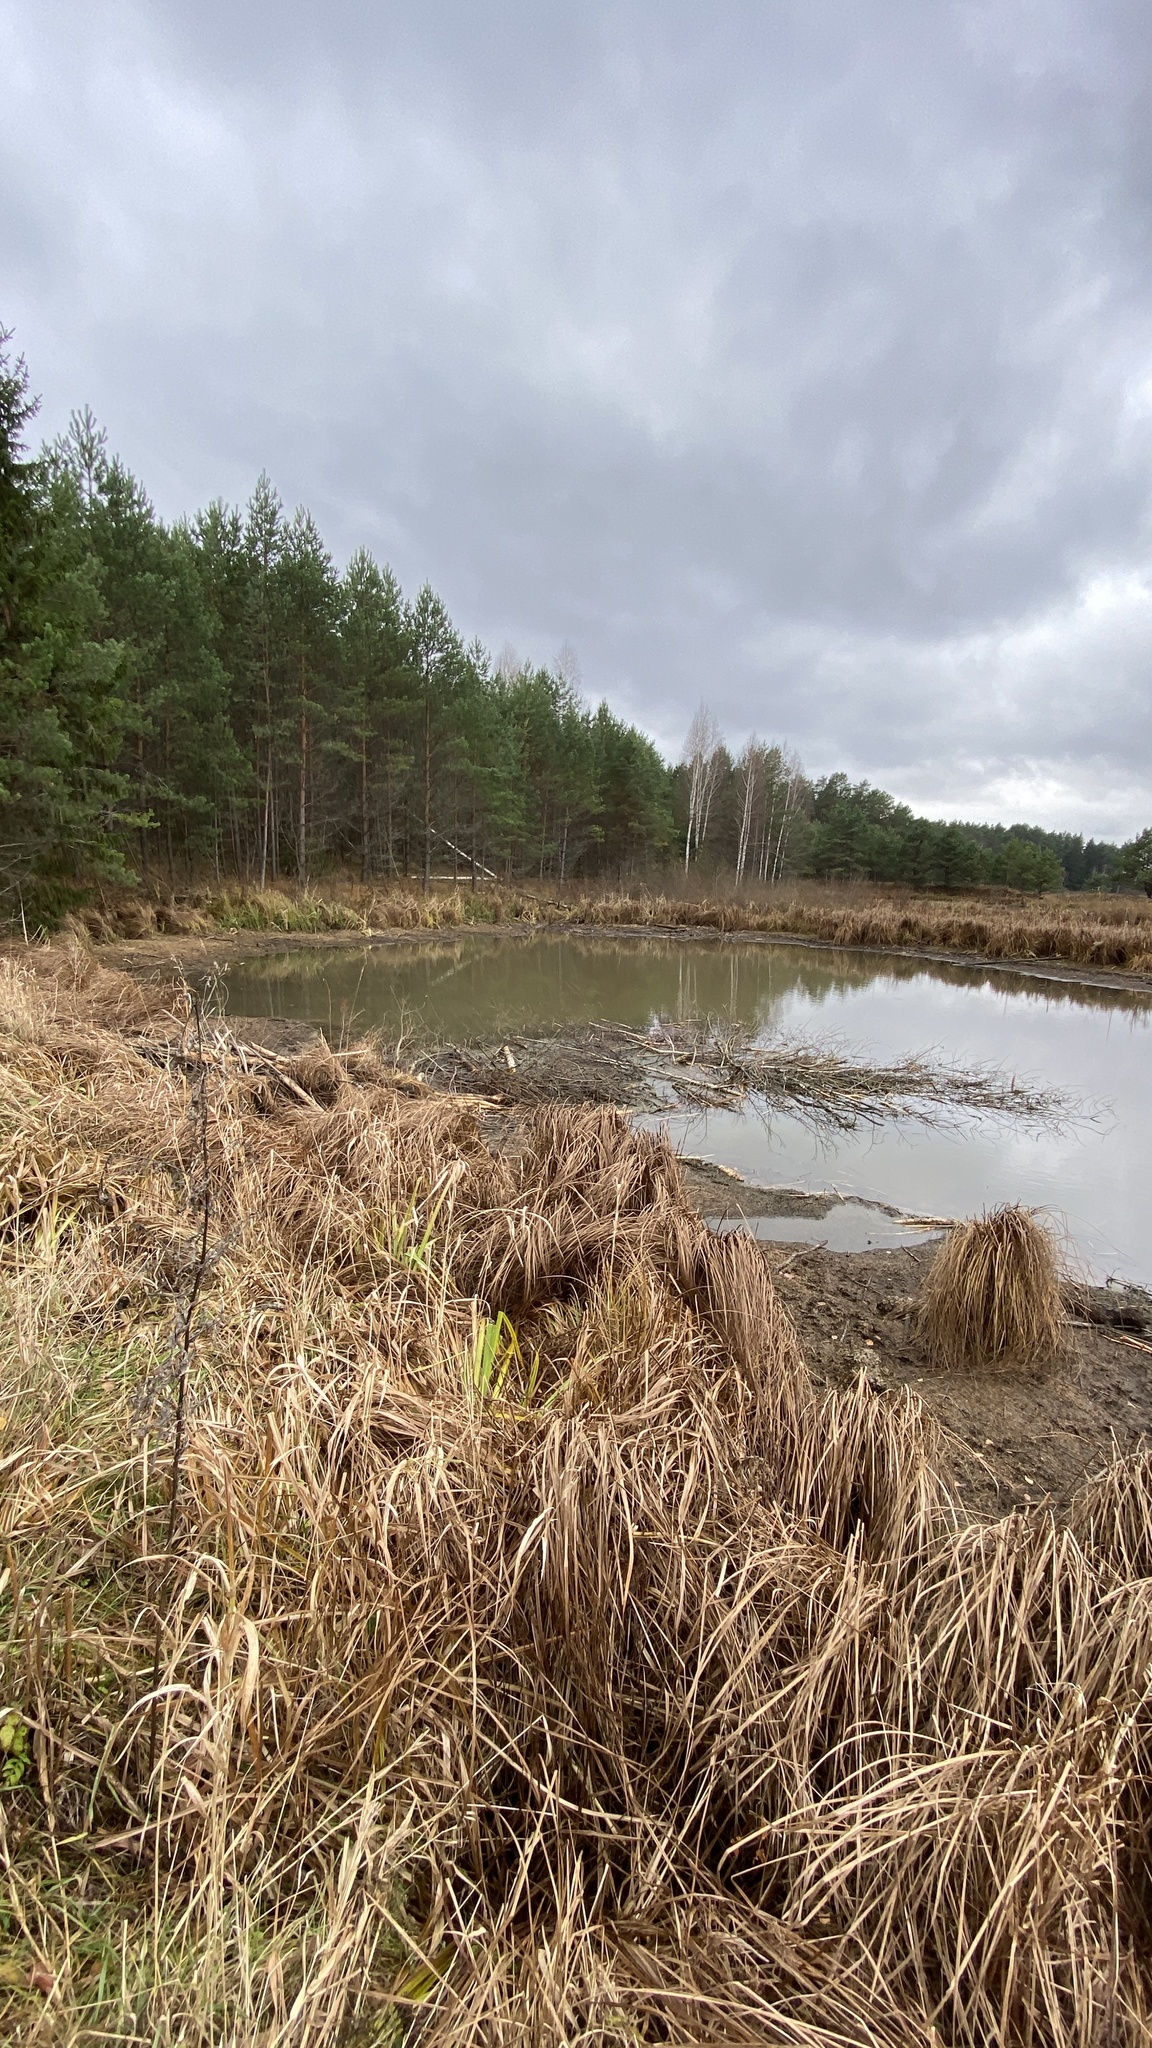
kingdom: Animalia
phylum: Chordata
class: Mammalia
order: Rodentia
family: Castoridae
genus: Castor
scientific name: Castor fiber
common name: Eurasian beaver
